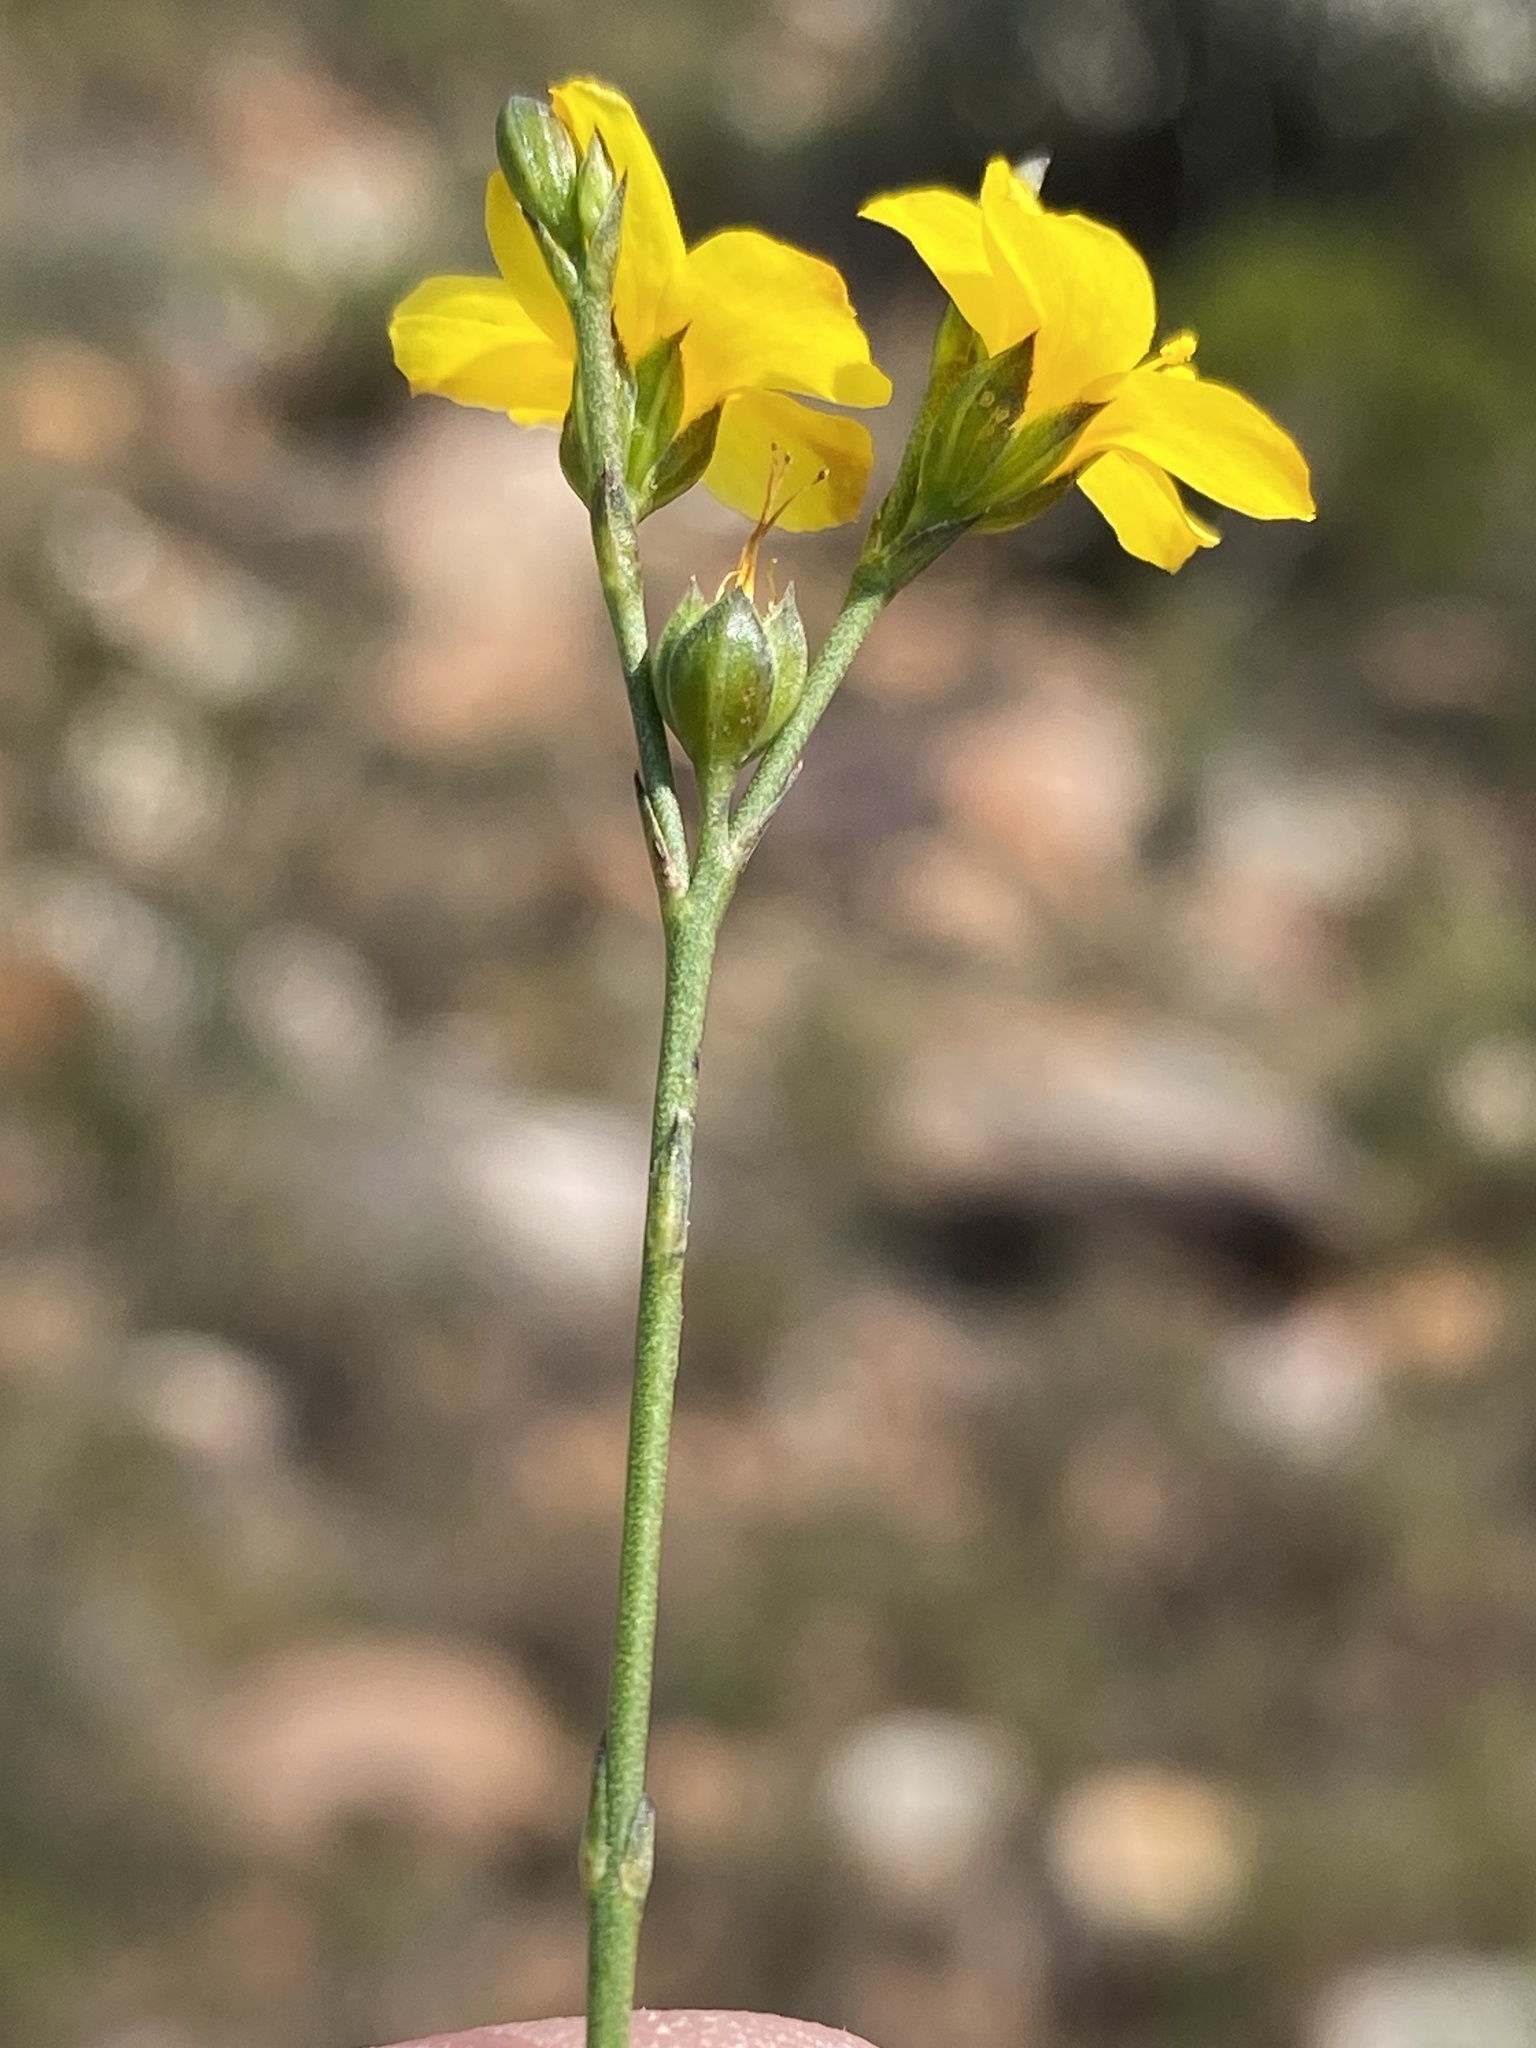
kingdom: Plantae
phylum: Tracheophyta
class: Magnoliopsida
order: Malpighiales
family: Linaceae
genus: Linum
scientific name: Linum africanum
